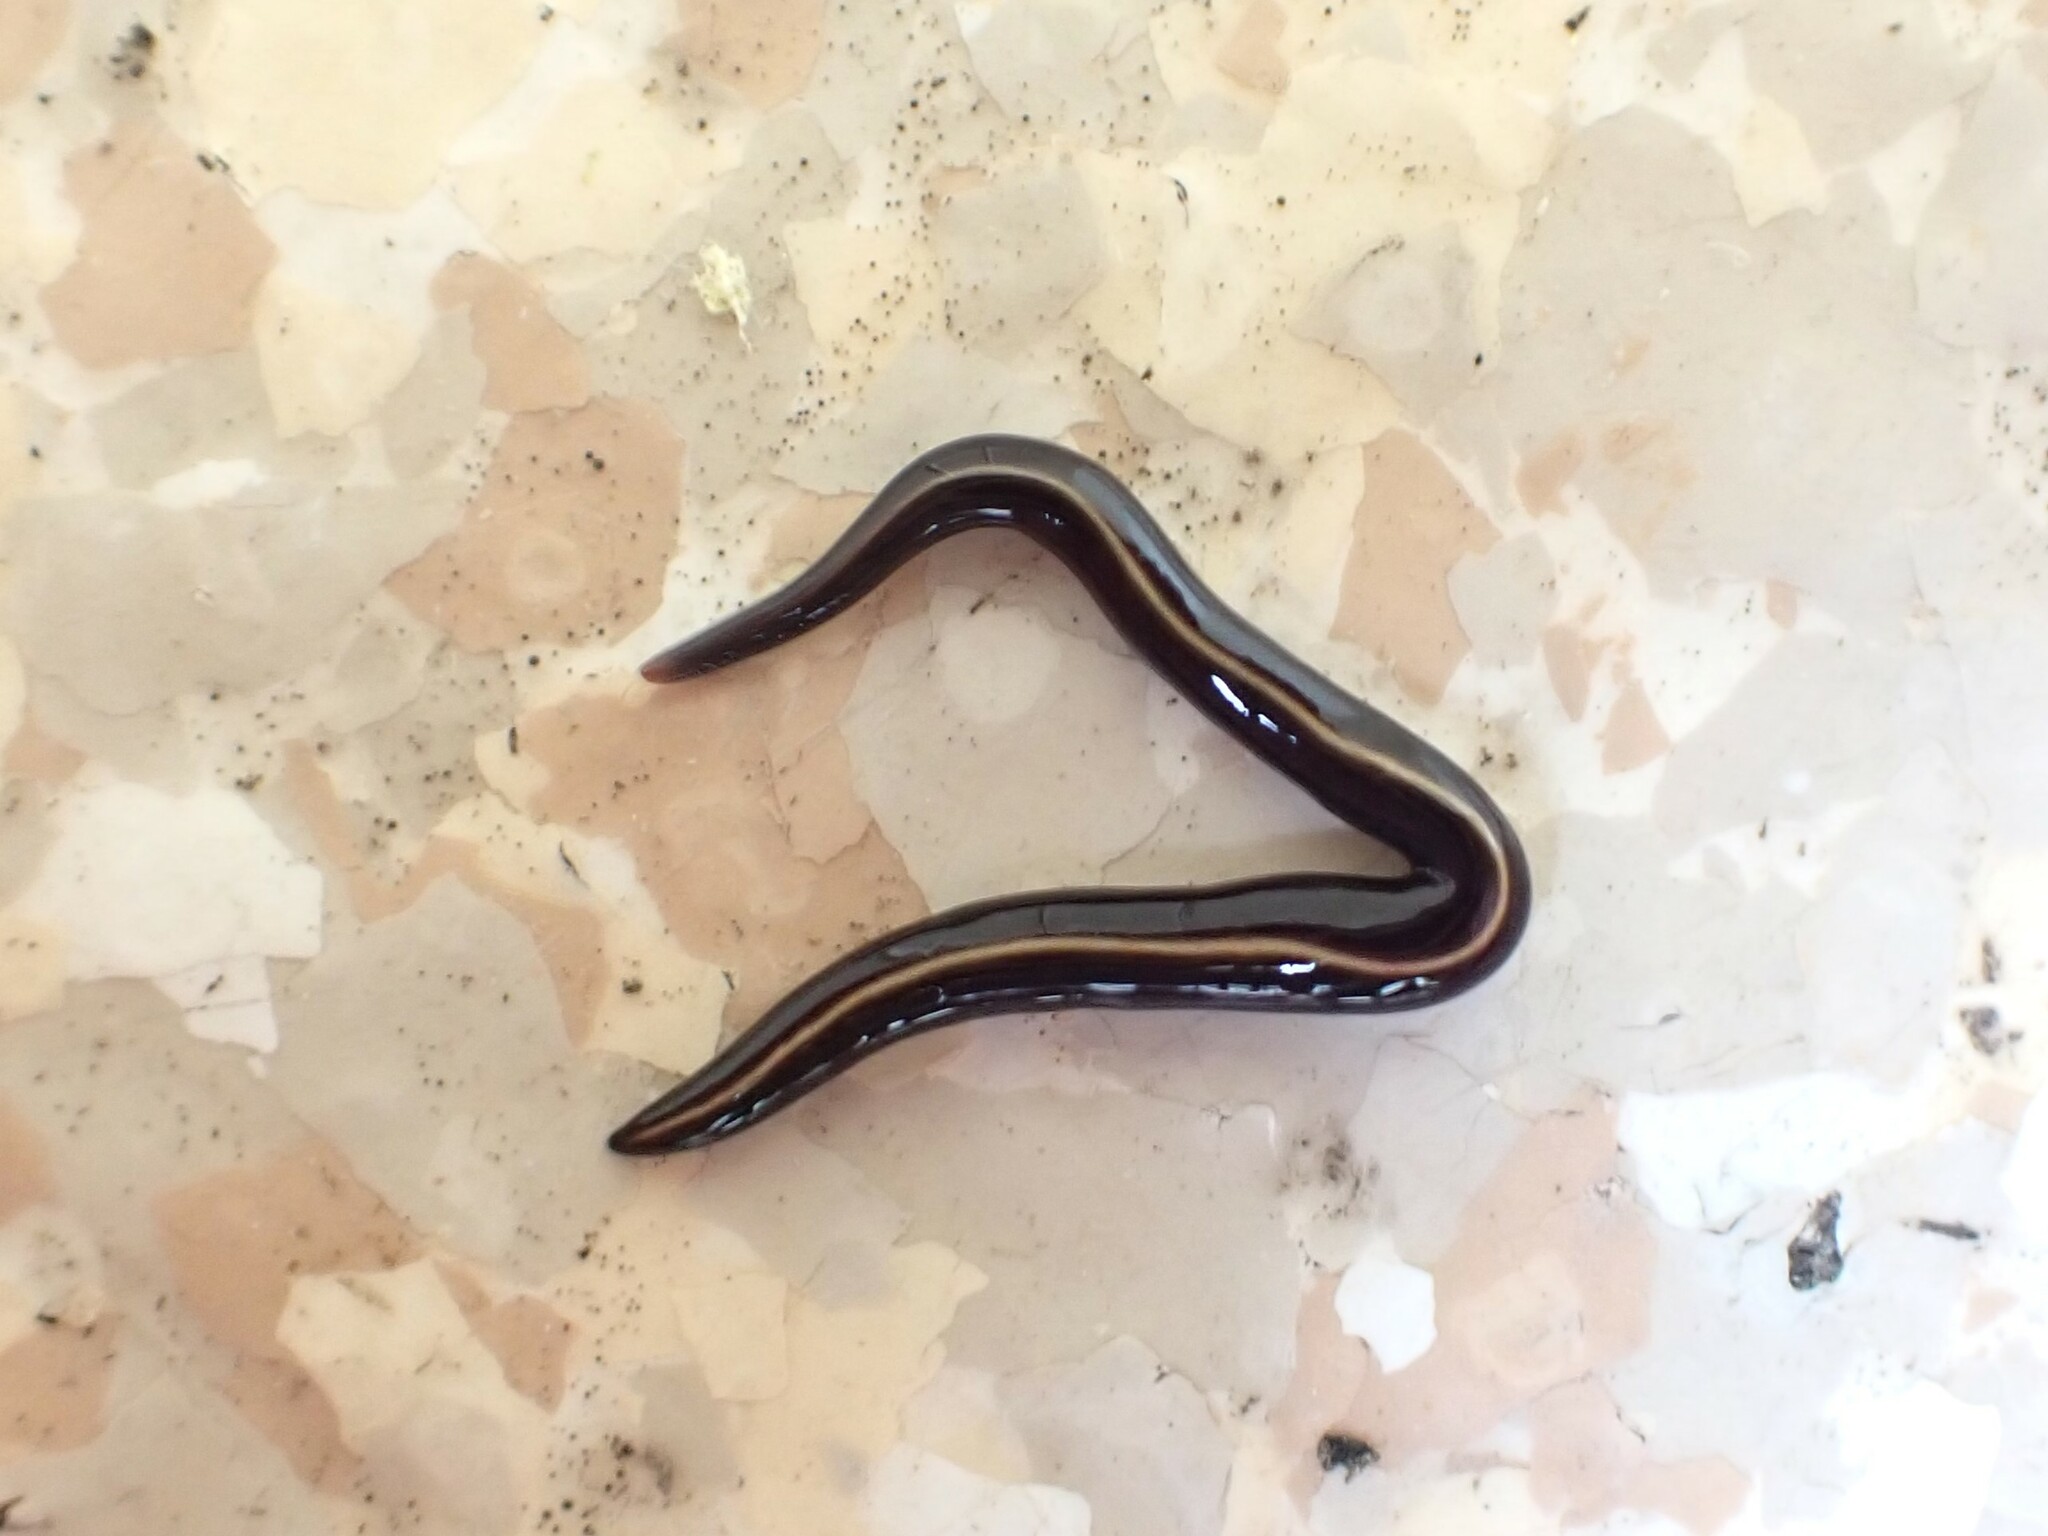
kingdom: Animalia
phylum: Platyhelminthes
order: Tricladida
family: Geoplanidae
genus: Caenoplana
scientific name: Caenoplana coerulea
